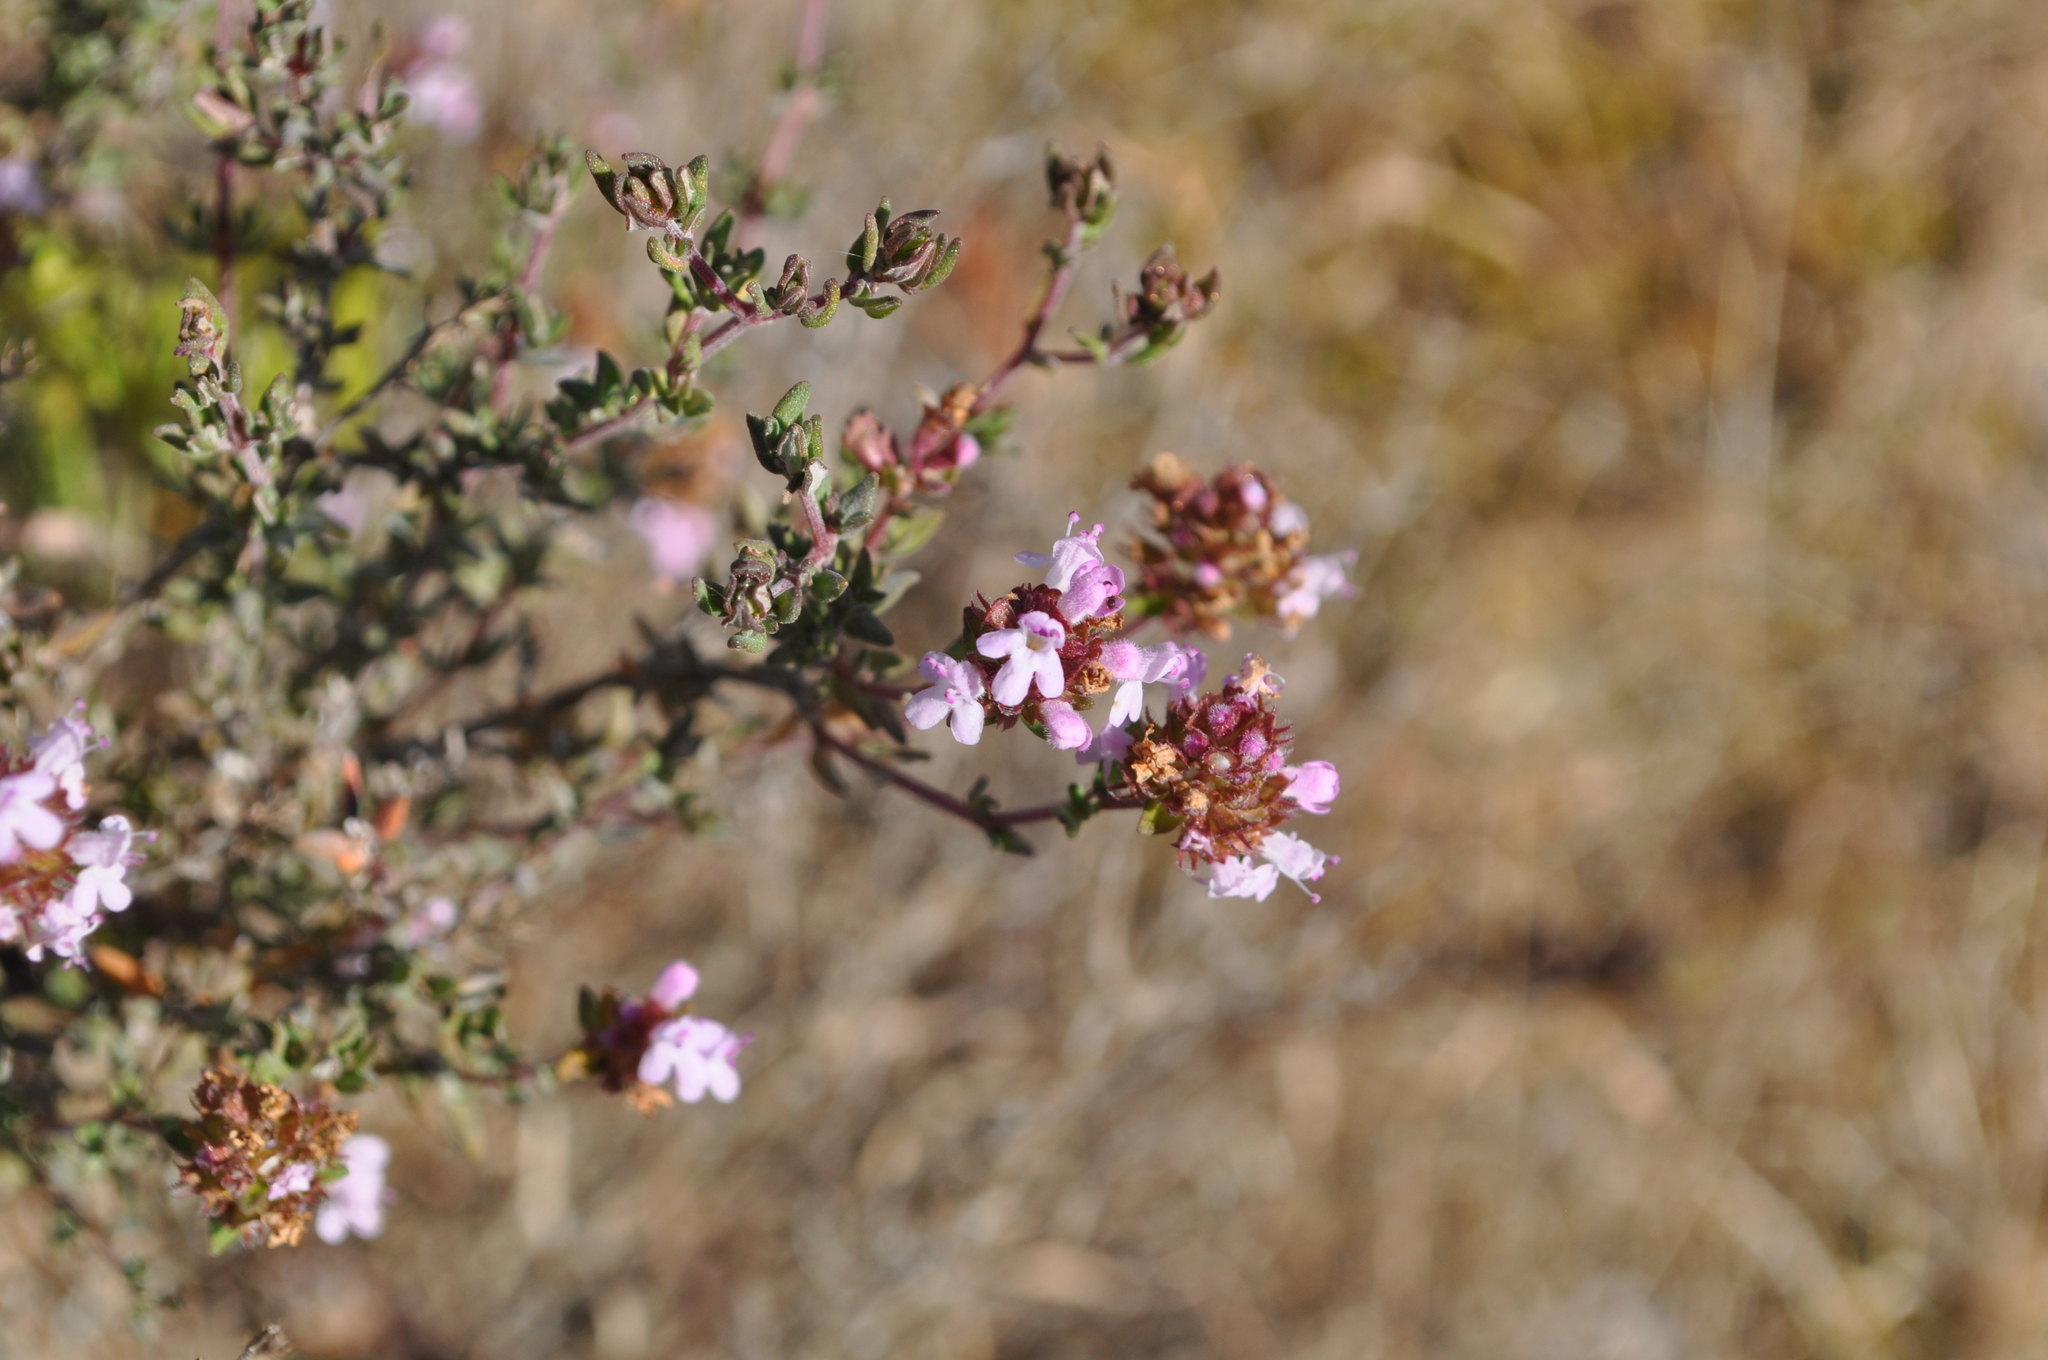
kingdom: Plantae
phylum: Tracheophyta
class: Magnoliopsida
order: Lamiales
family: Lamiaceae
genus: Thymus
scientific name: Thymus vulgaris
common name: Garden thyme
